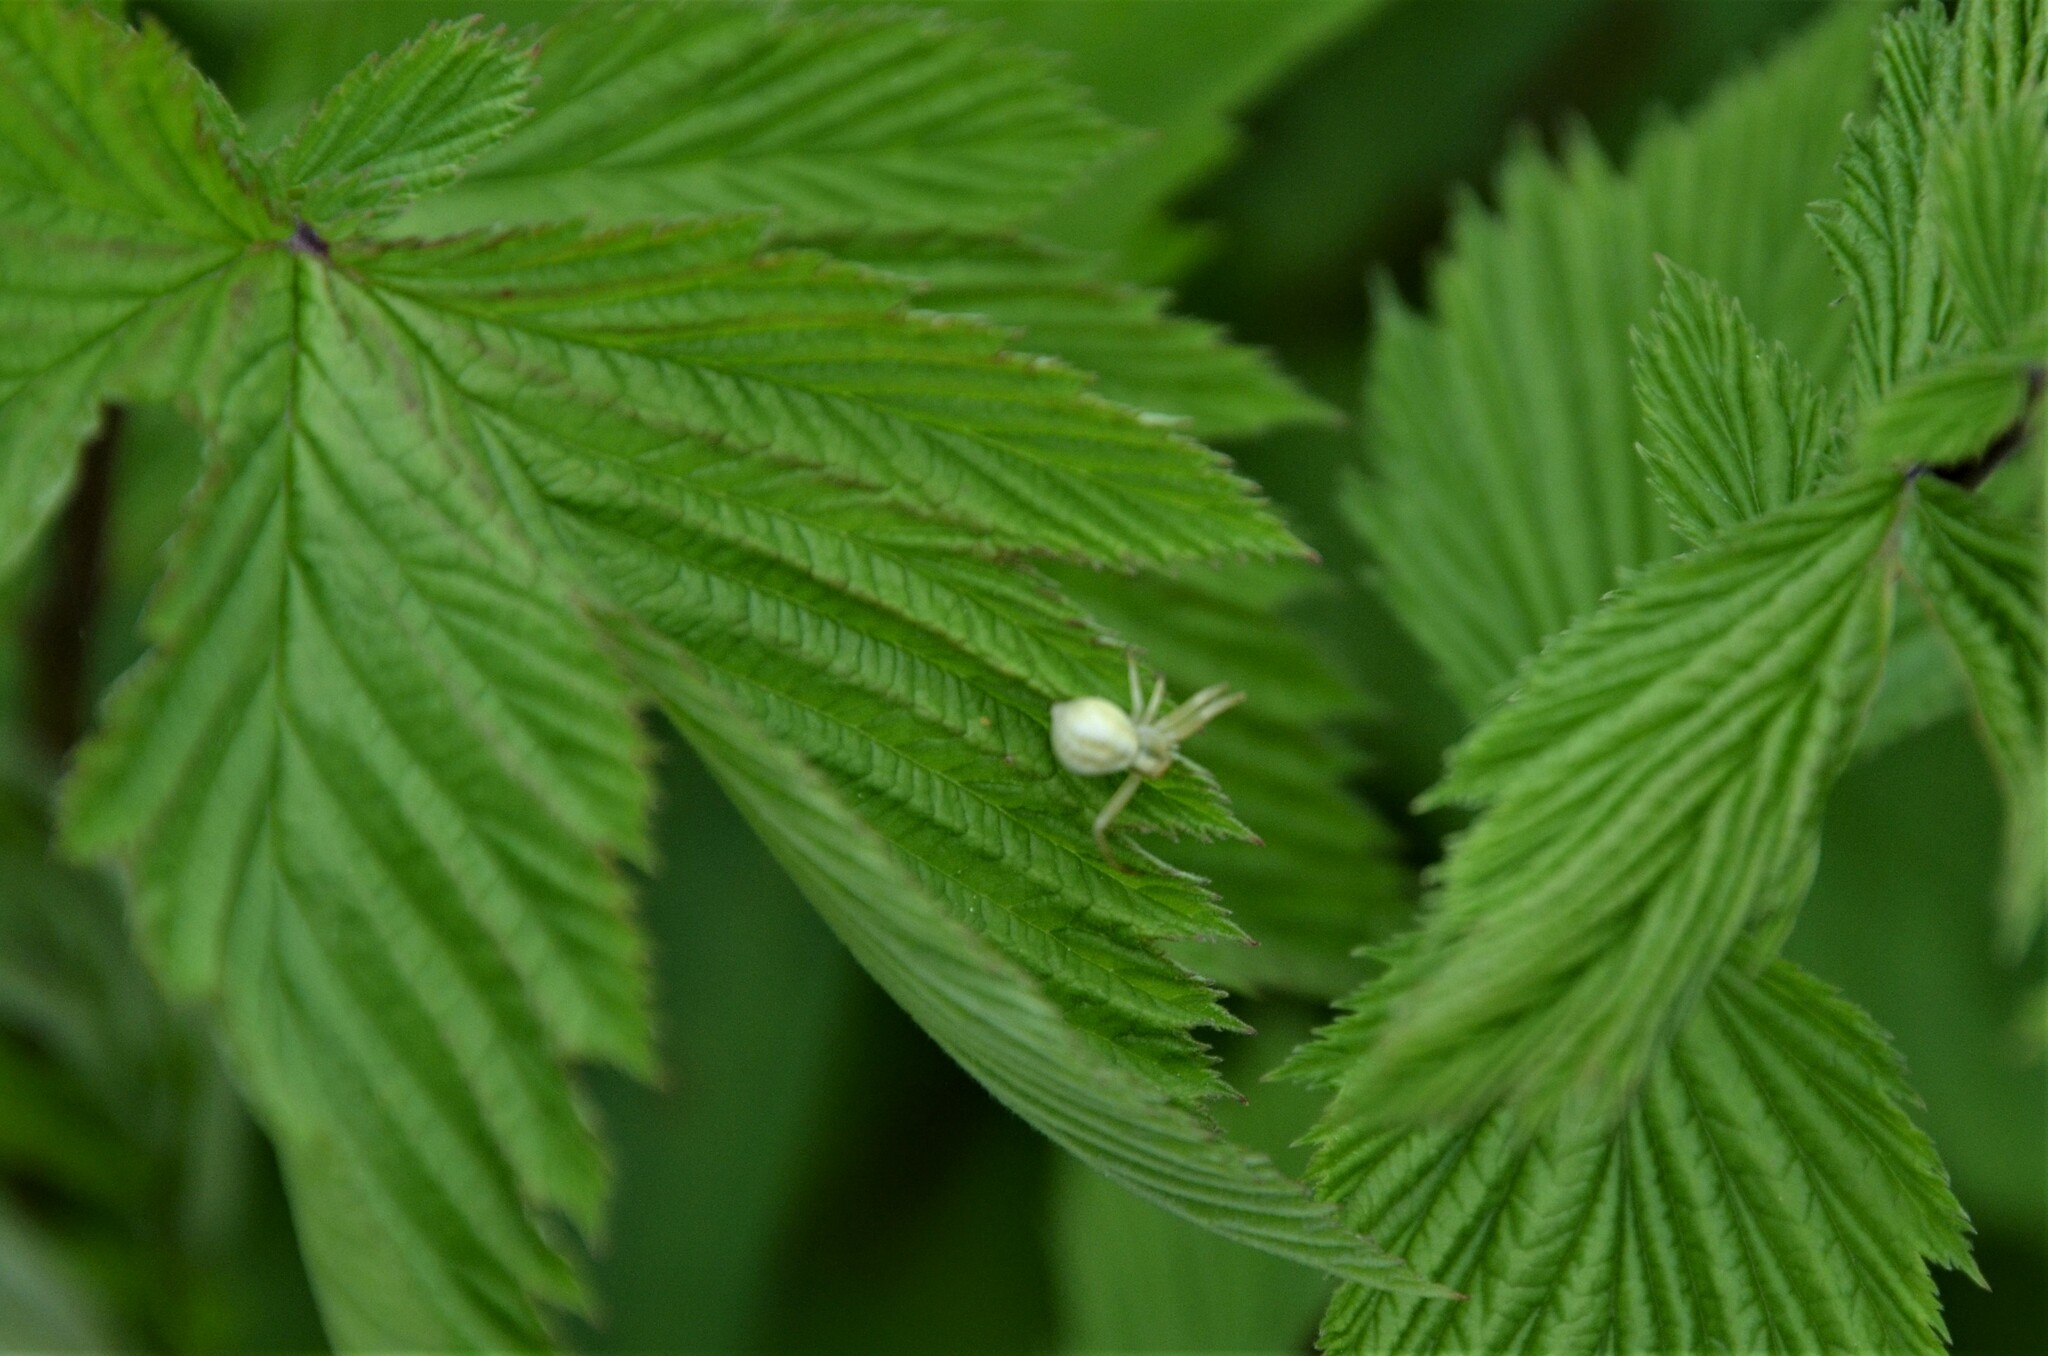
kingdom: Animalia
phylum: Arthropoda
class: Arachnida
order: Araneae
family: Thomisidae
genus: Misumena
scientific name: Misumena vatia
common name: Goldenrod crab spider
